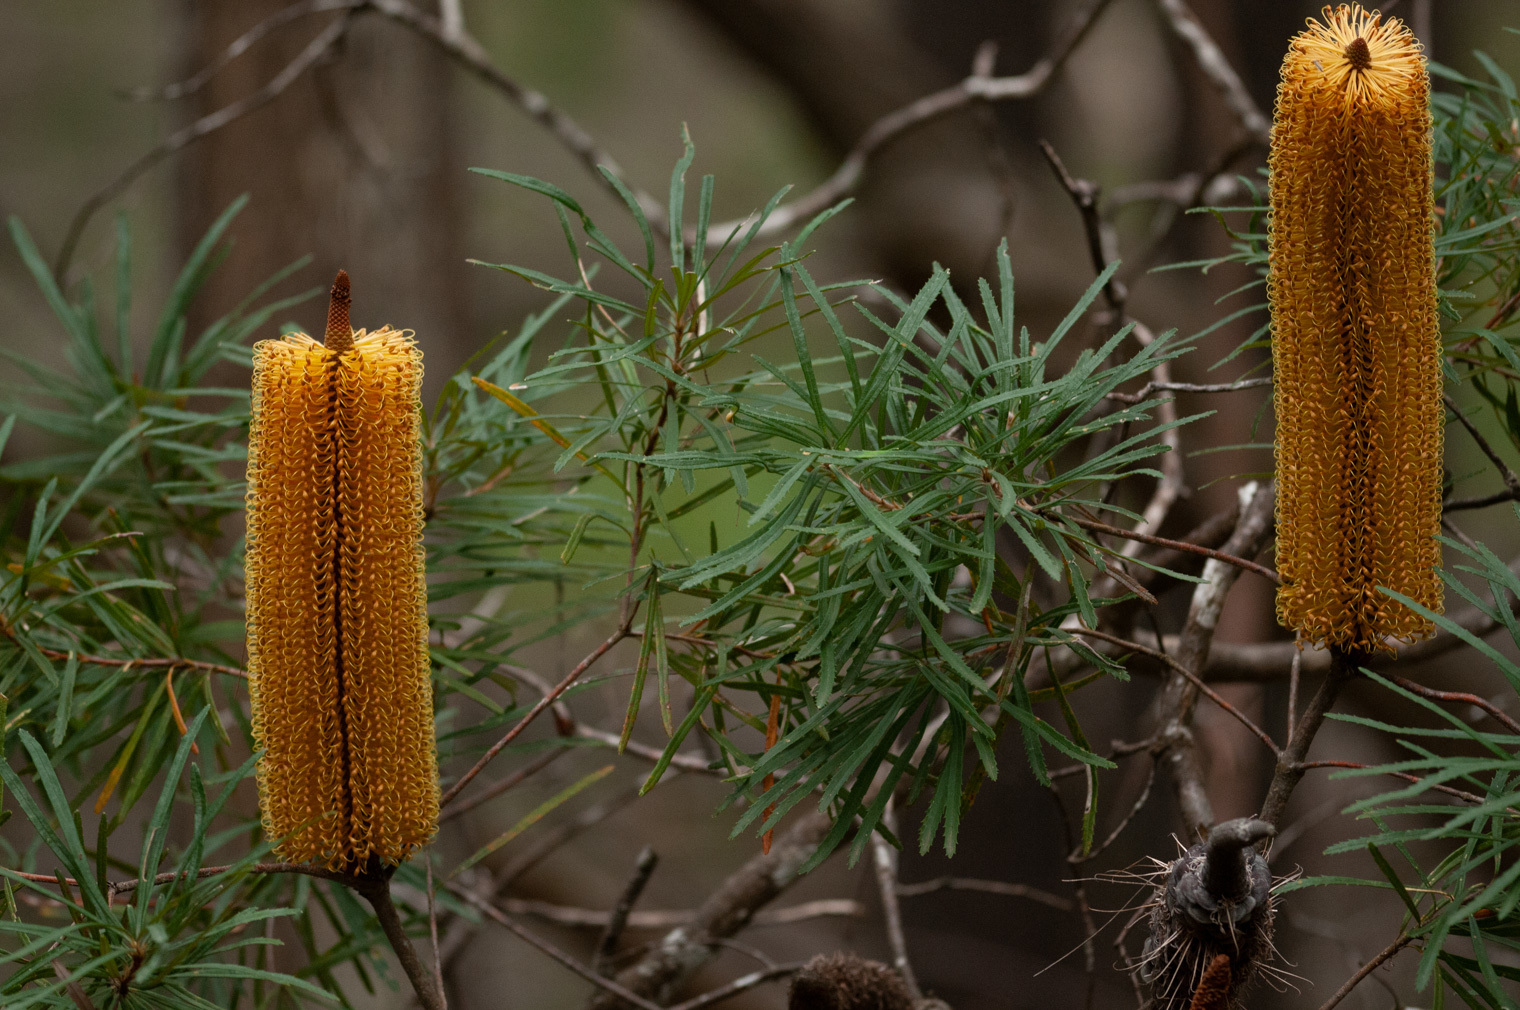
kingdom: Plantae
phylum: Tracheophyta
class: Magnoliopsida
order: Proteales
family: Proteaceae
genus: Banksia
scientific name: Banksia spinulosa
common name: Hairpin banksia
